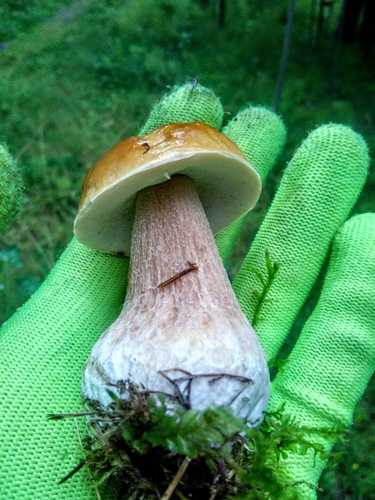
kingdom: Fungi
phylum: Basidiomycota
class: Agaricomycetes
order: Boletales
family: Boletaceae
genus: Boletus
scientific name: Boletus edulis
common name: Cep
